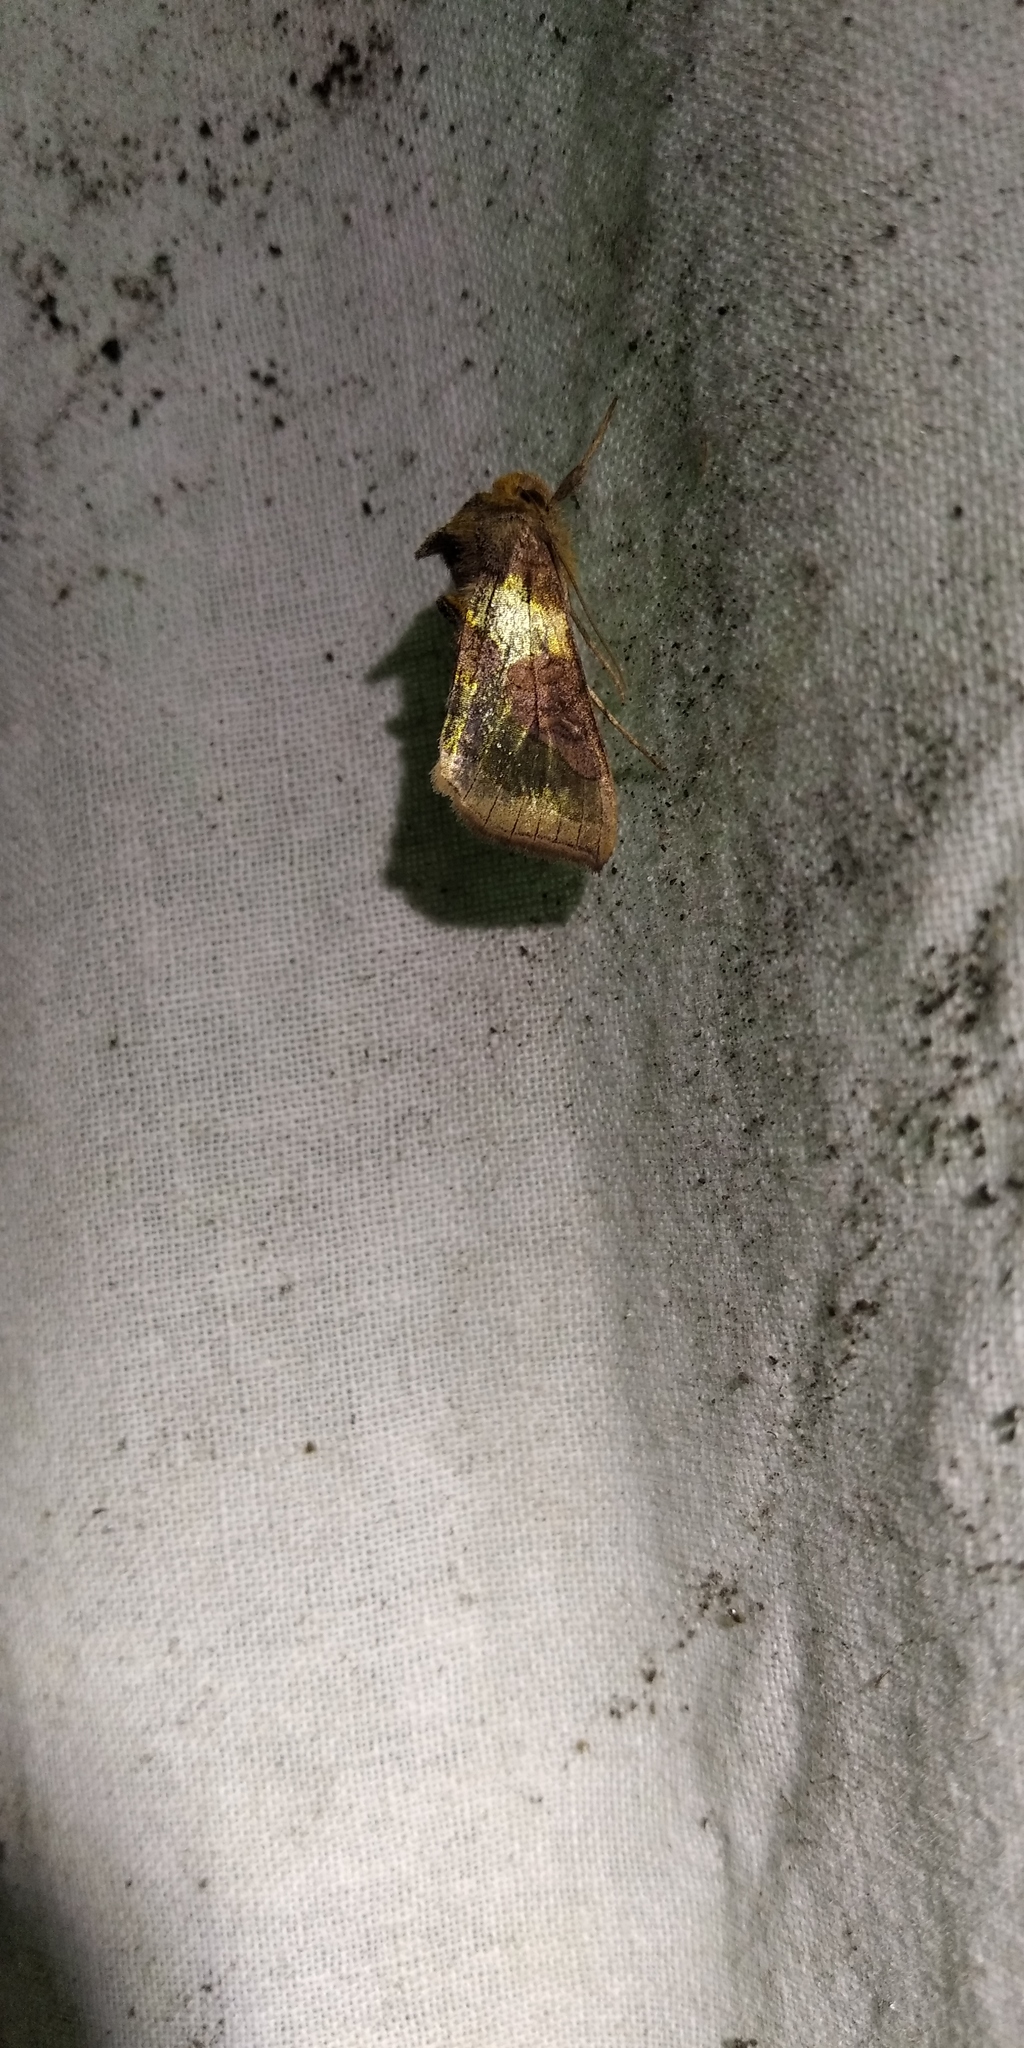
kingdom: Animalia
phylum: Arthropoda
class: Insecta
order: Lepidoptera
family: Noctuidae
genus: Diachrysia
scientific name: Diachrysia chrysitis
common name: Burnished brass
